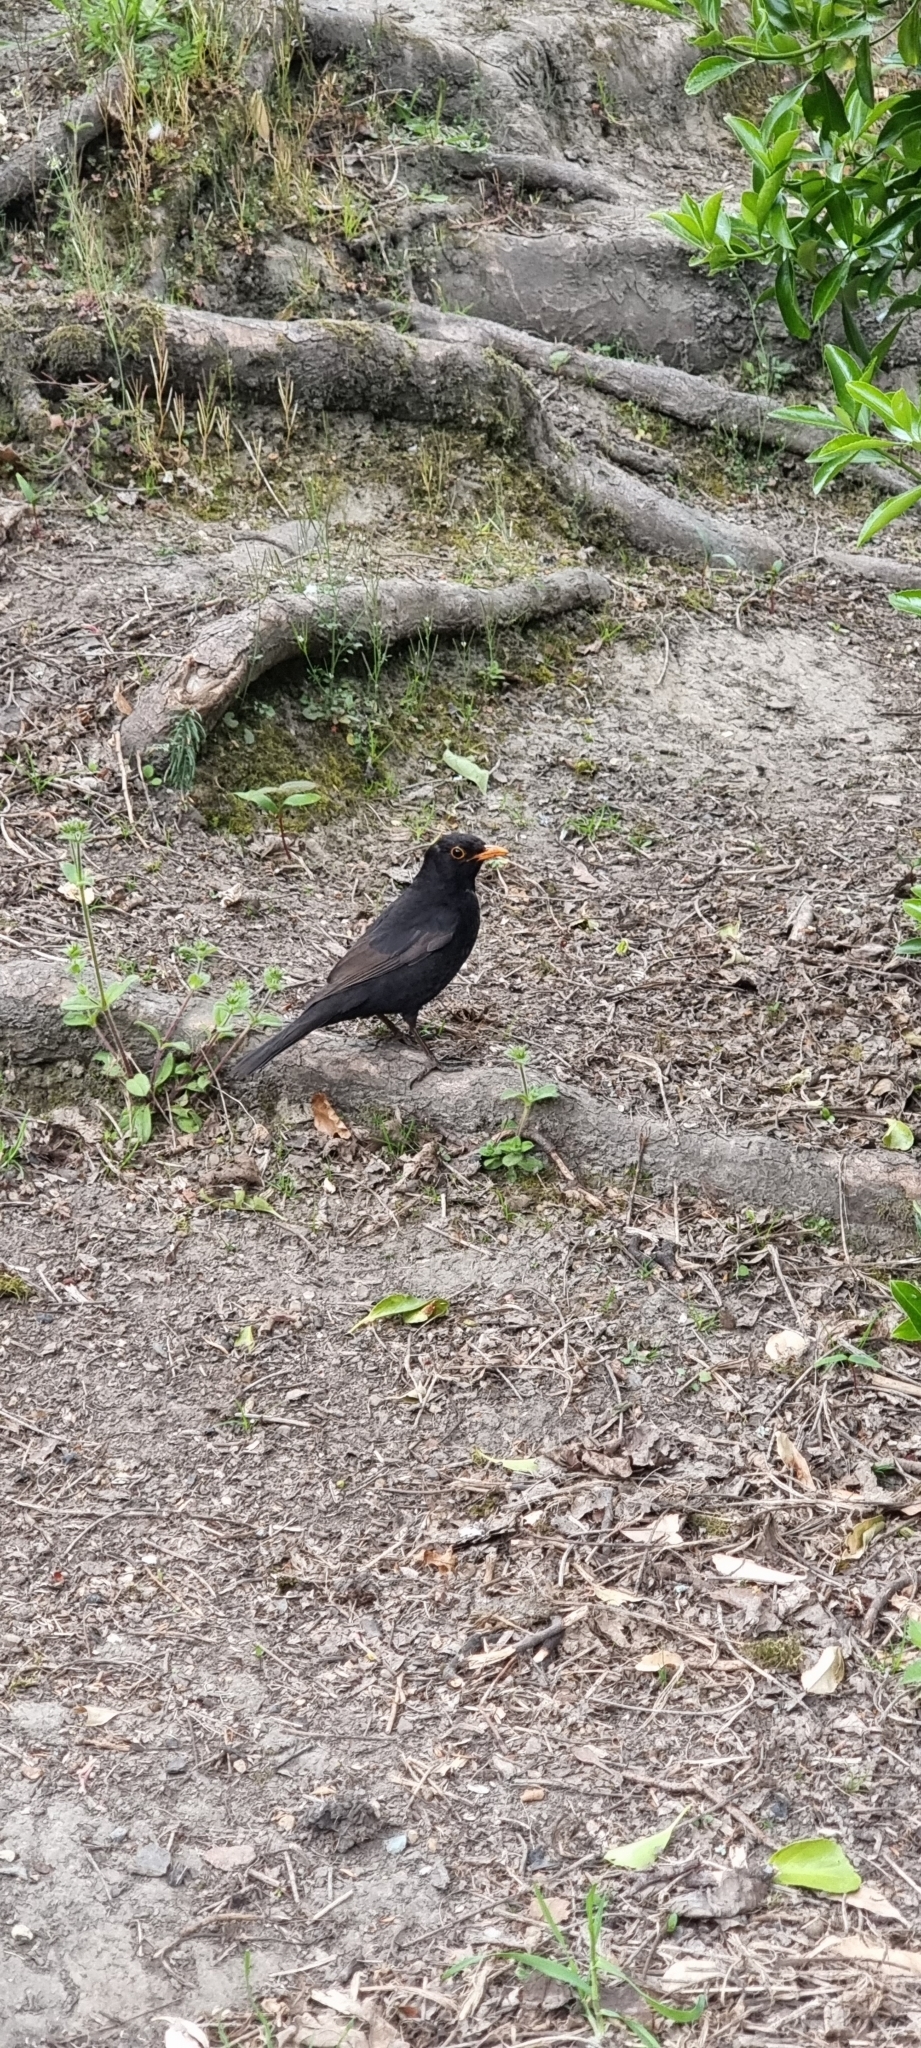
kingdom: Animalia
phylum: Chordata
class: Aves
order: Passeriformes
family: Turdidae
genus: Turdus
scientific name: Turdus merula
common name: Common blackbird
